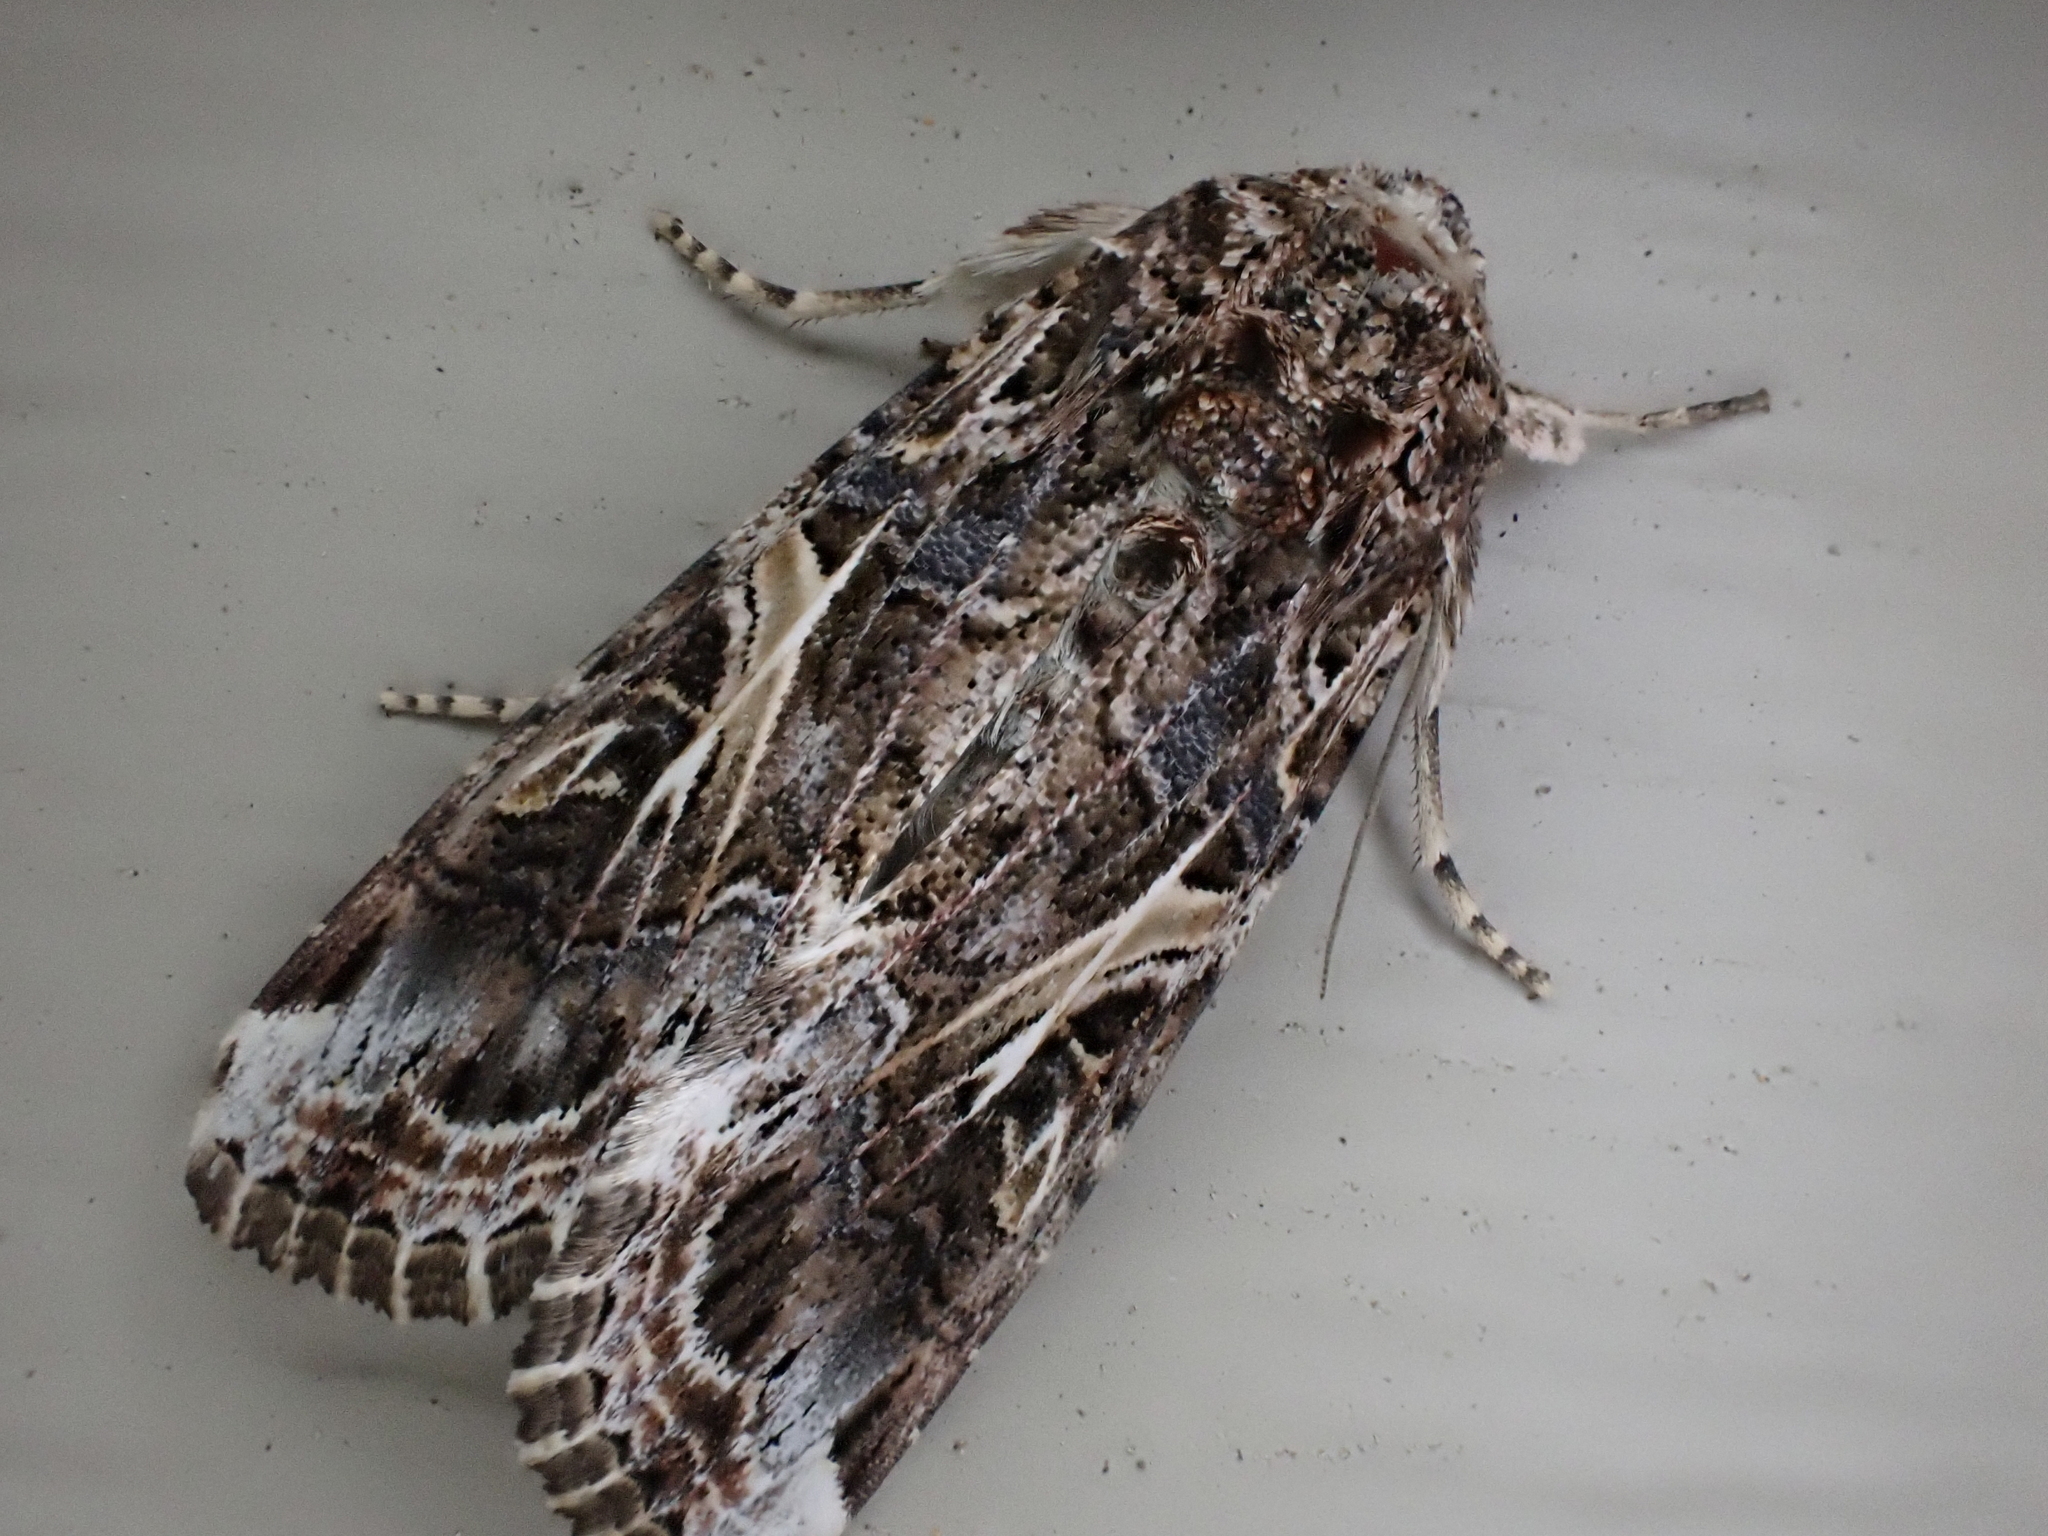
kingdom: Animalia
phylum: Arthropoda
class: Insecta
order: Lepidoptera
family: Noctuidae
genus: Spodoptera
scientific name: Spodoptera ornithogalli
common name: Yellow-striped armyworm
